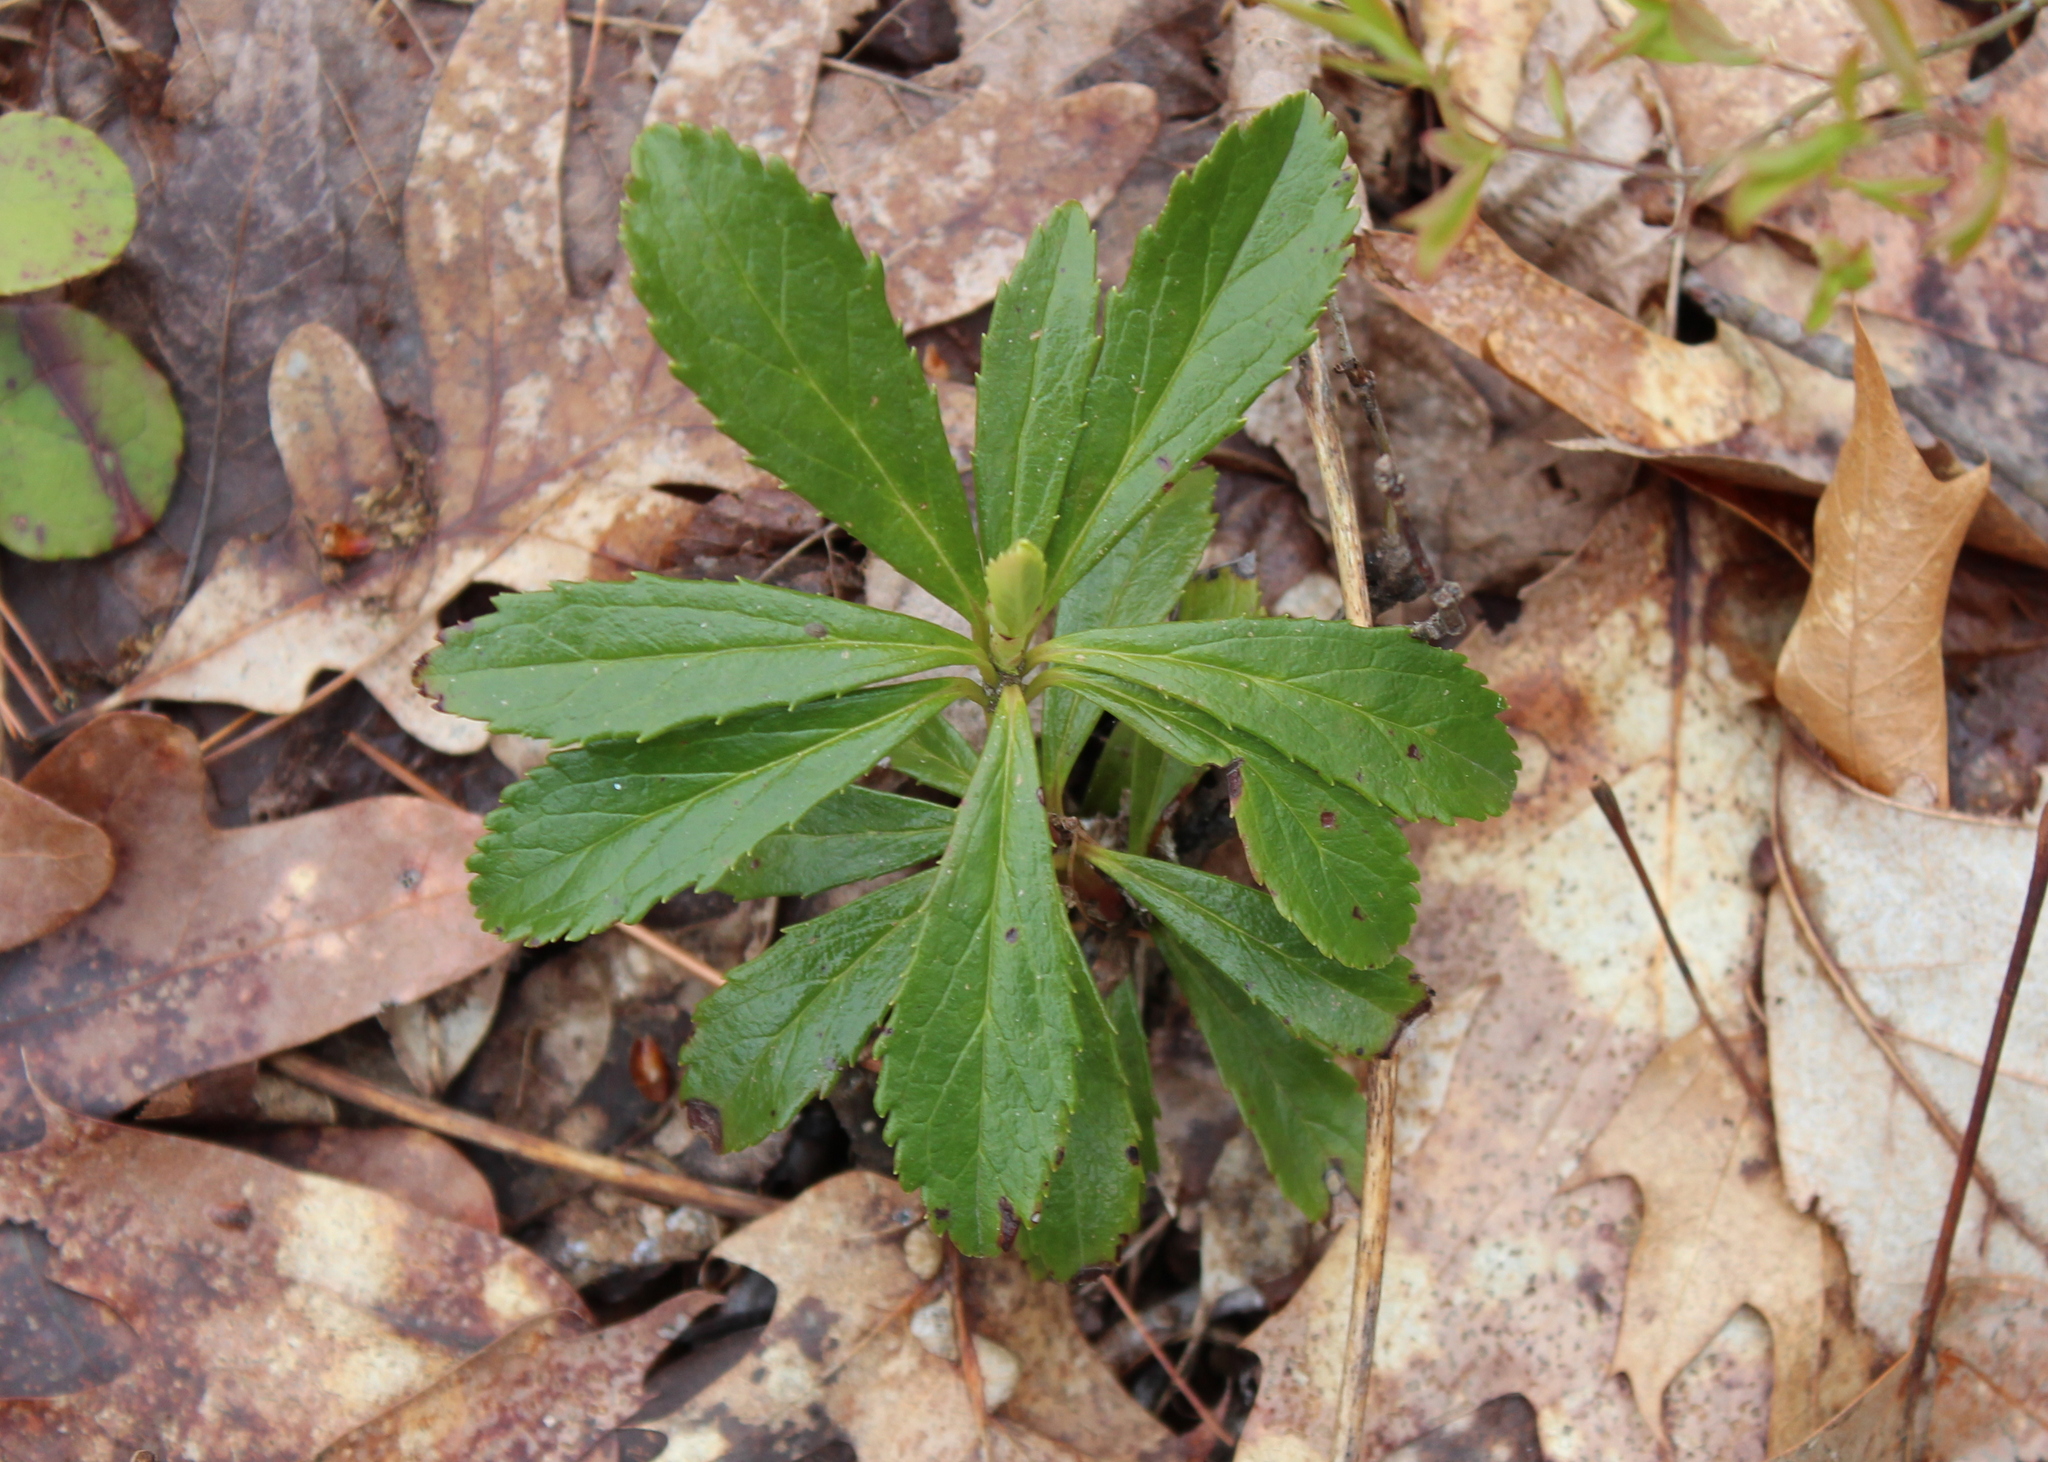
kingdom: Plantae
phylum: Tracheophyta
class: Magnoliopsida
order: Ericales
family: Ericaceae
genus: Chimaphila
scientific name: Chimaphila umbellata
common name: Pipsissewa
